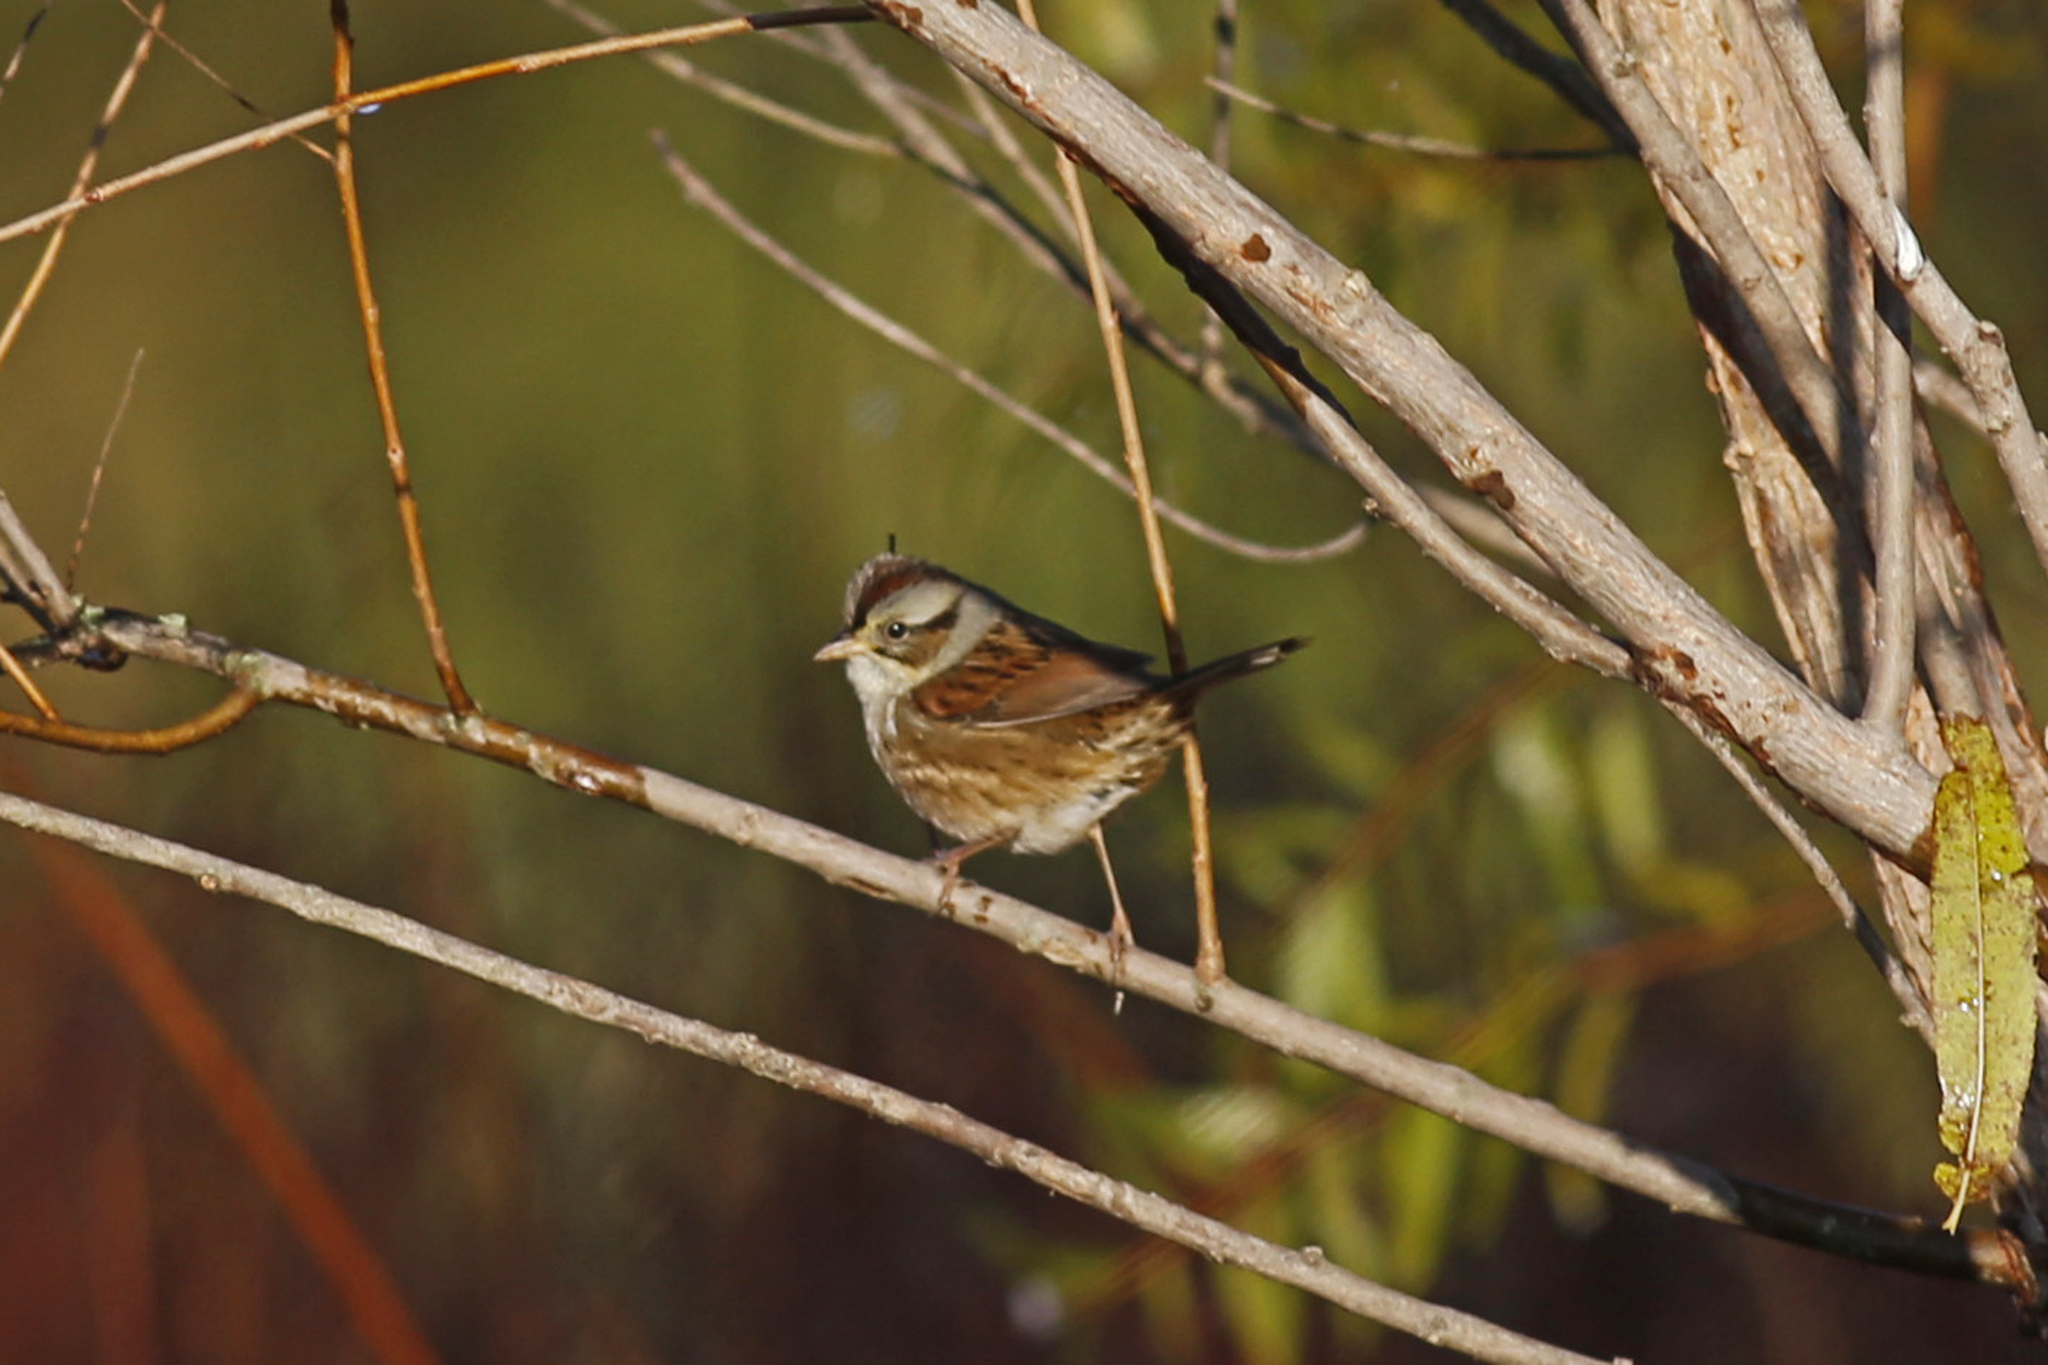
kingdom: Animalia
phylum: Chordata
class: Aves
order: Passeriformes
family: Passerellidae
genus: Melospiza
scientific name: Melospiza georgiana
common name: Swamp sparrow
